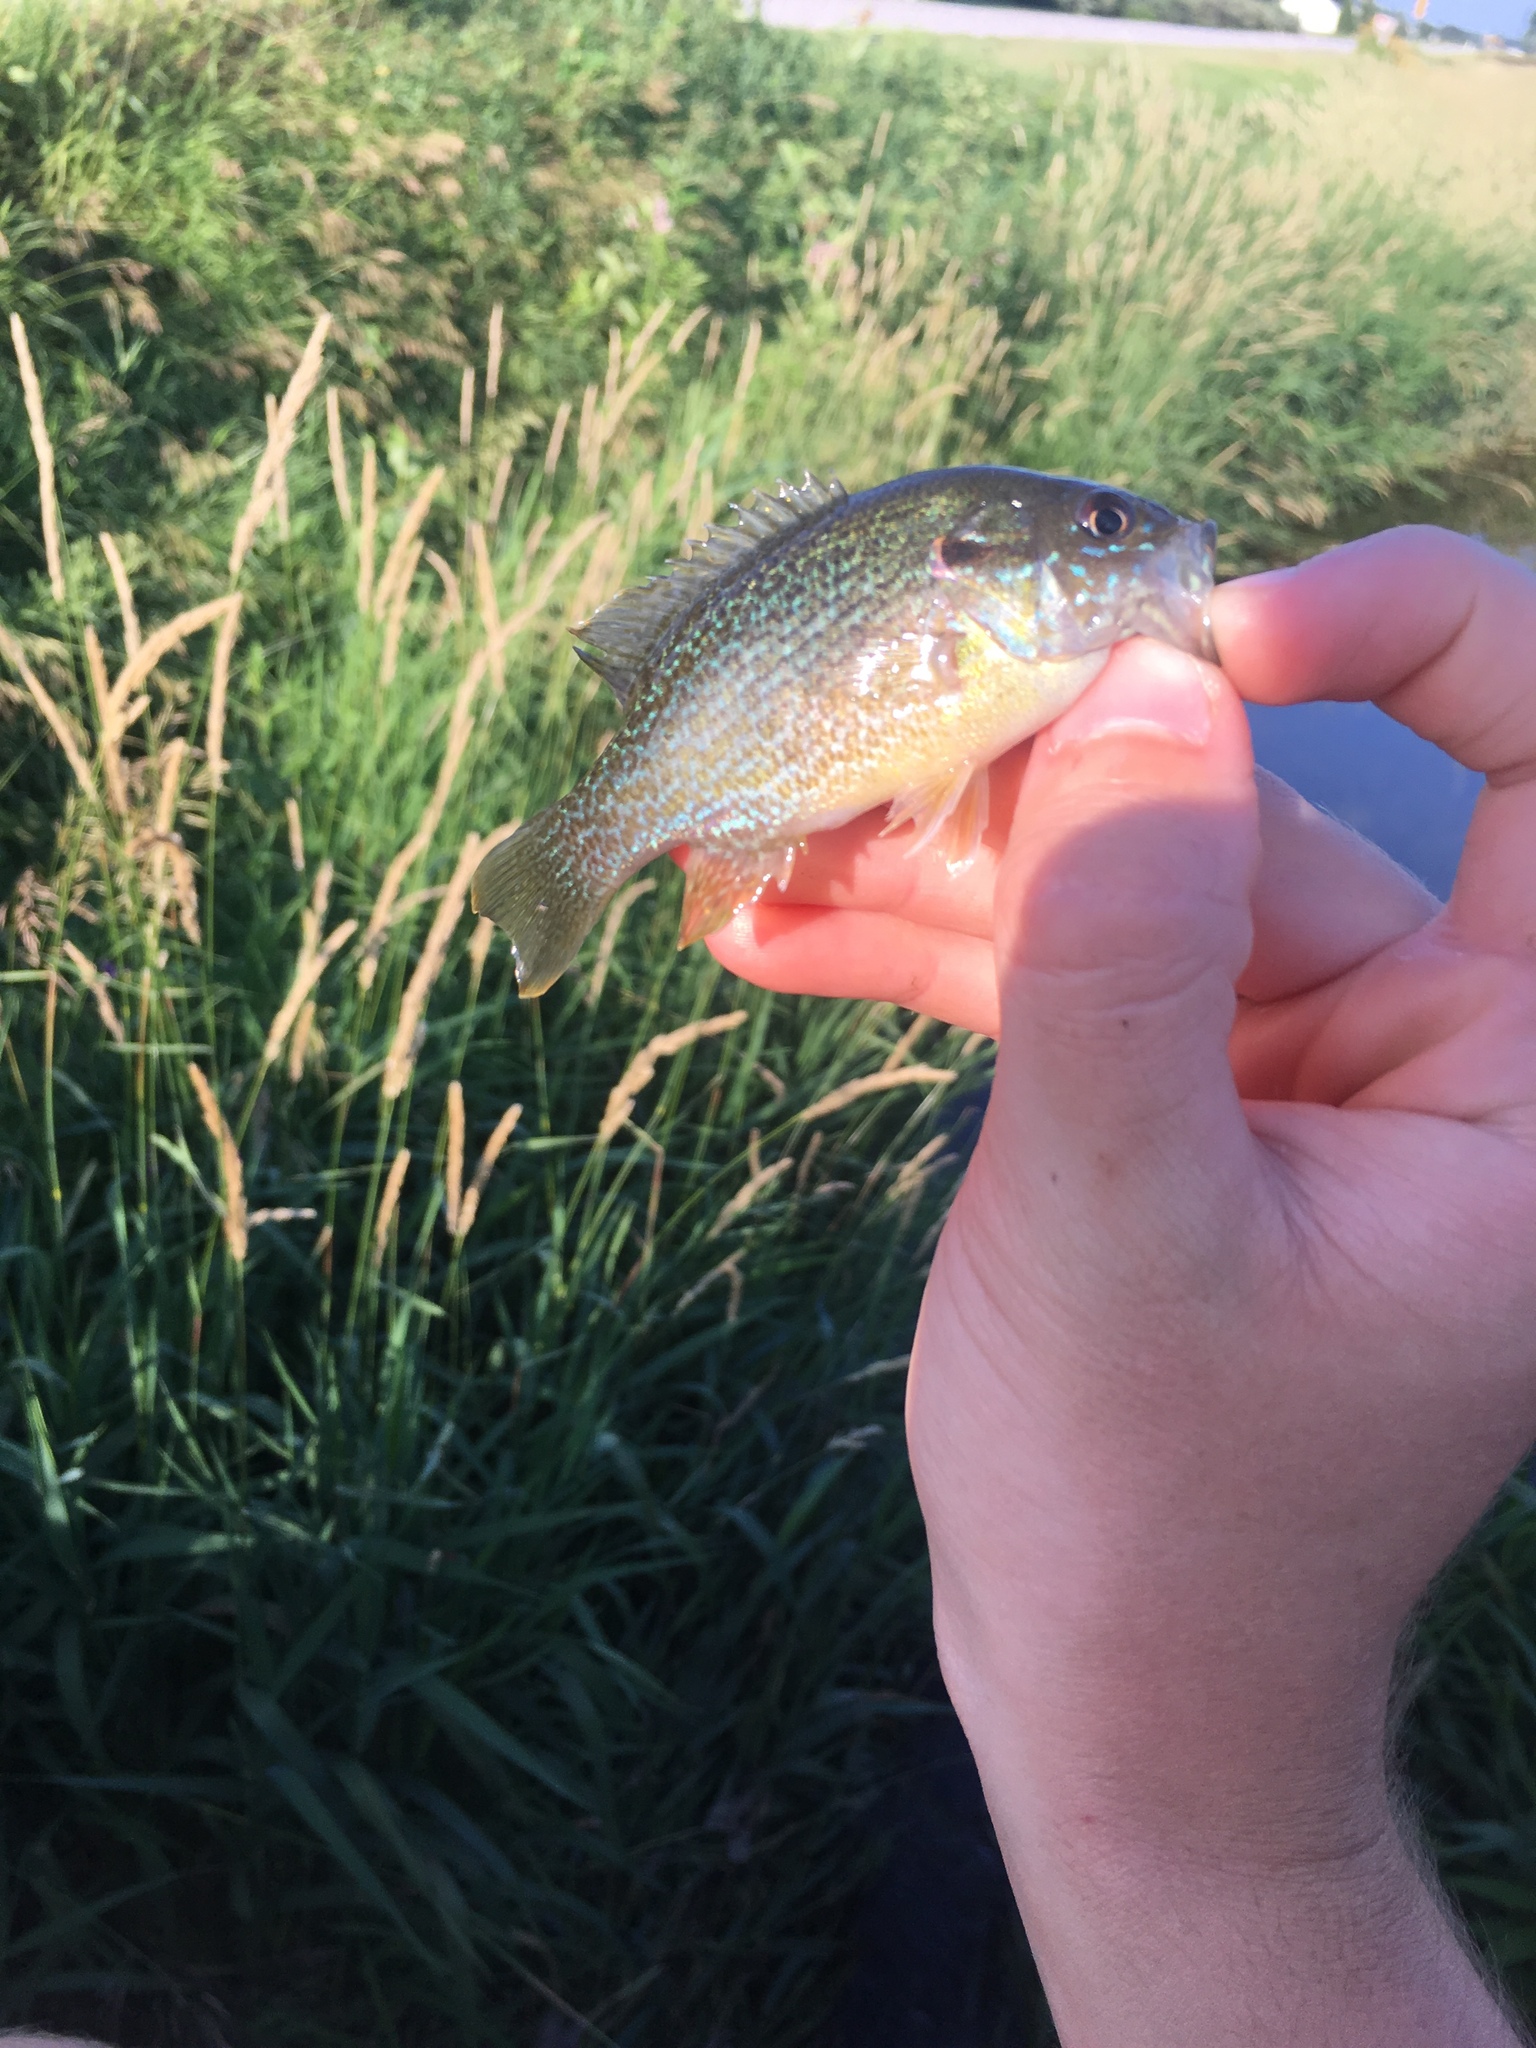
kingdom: Animalia
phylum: Chordata
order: Perciformes
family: Centrarchidae
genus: Lepomis
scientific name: Lepomis cyanellus
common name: Green sunfish
